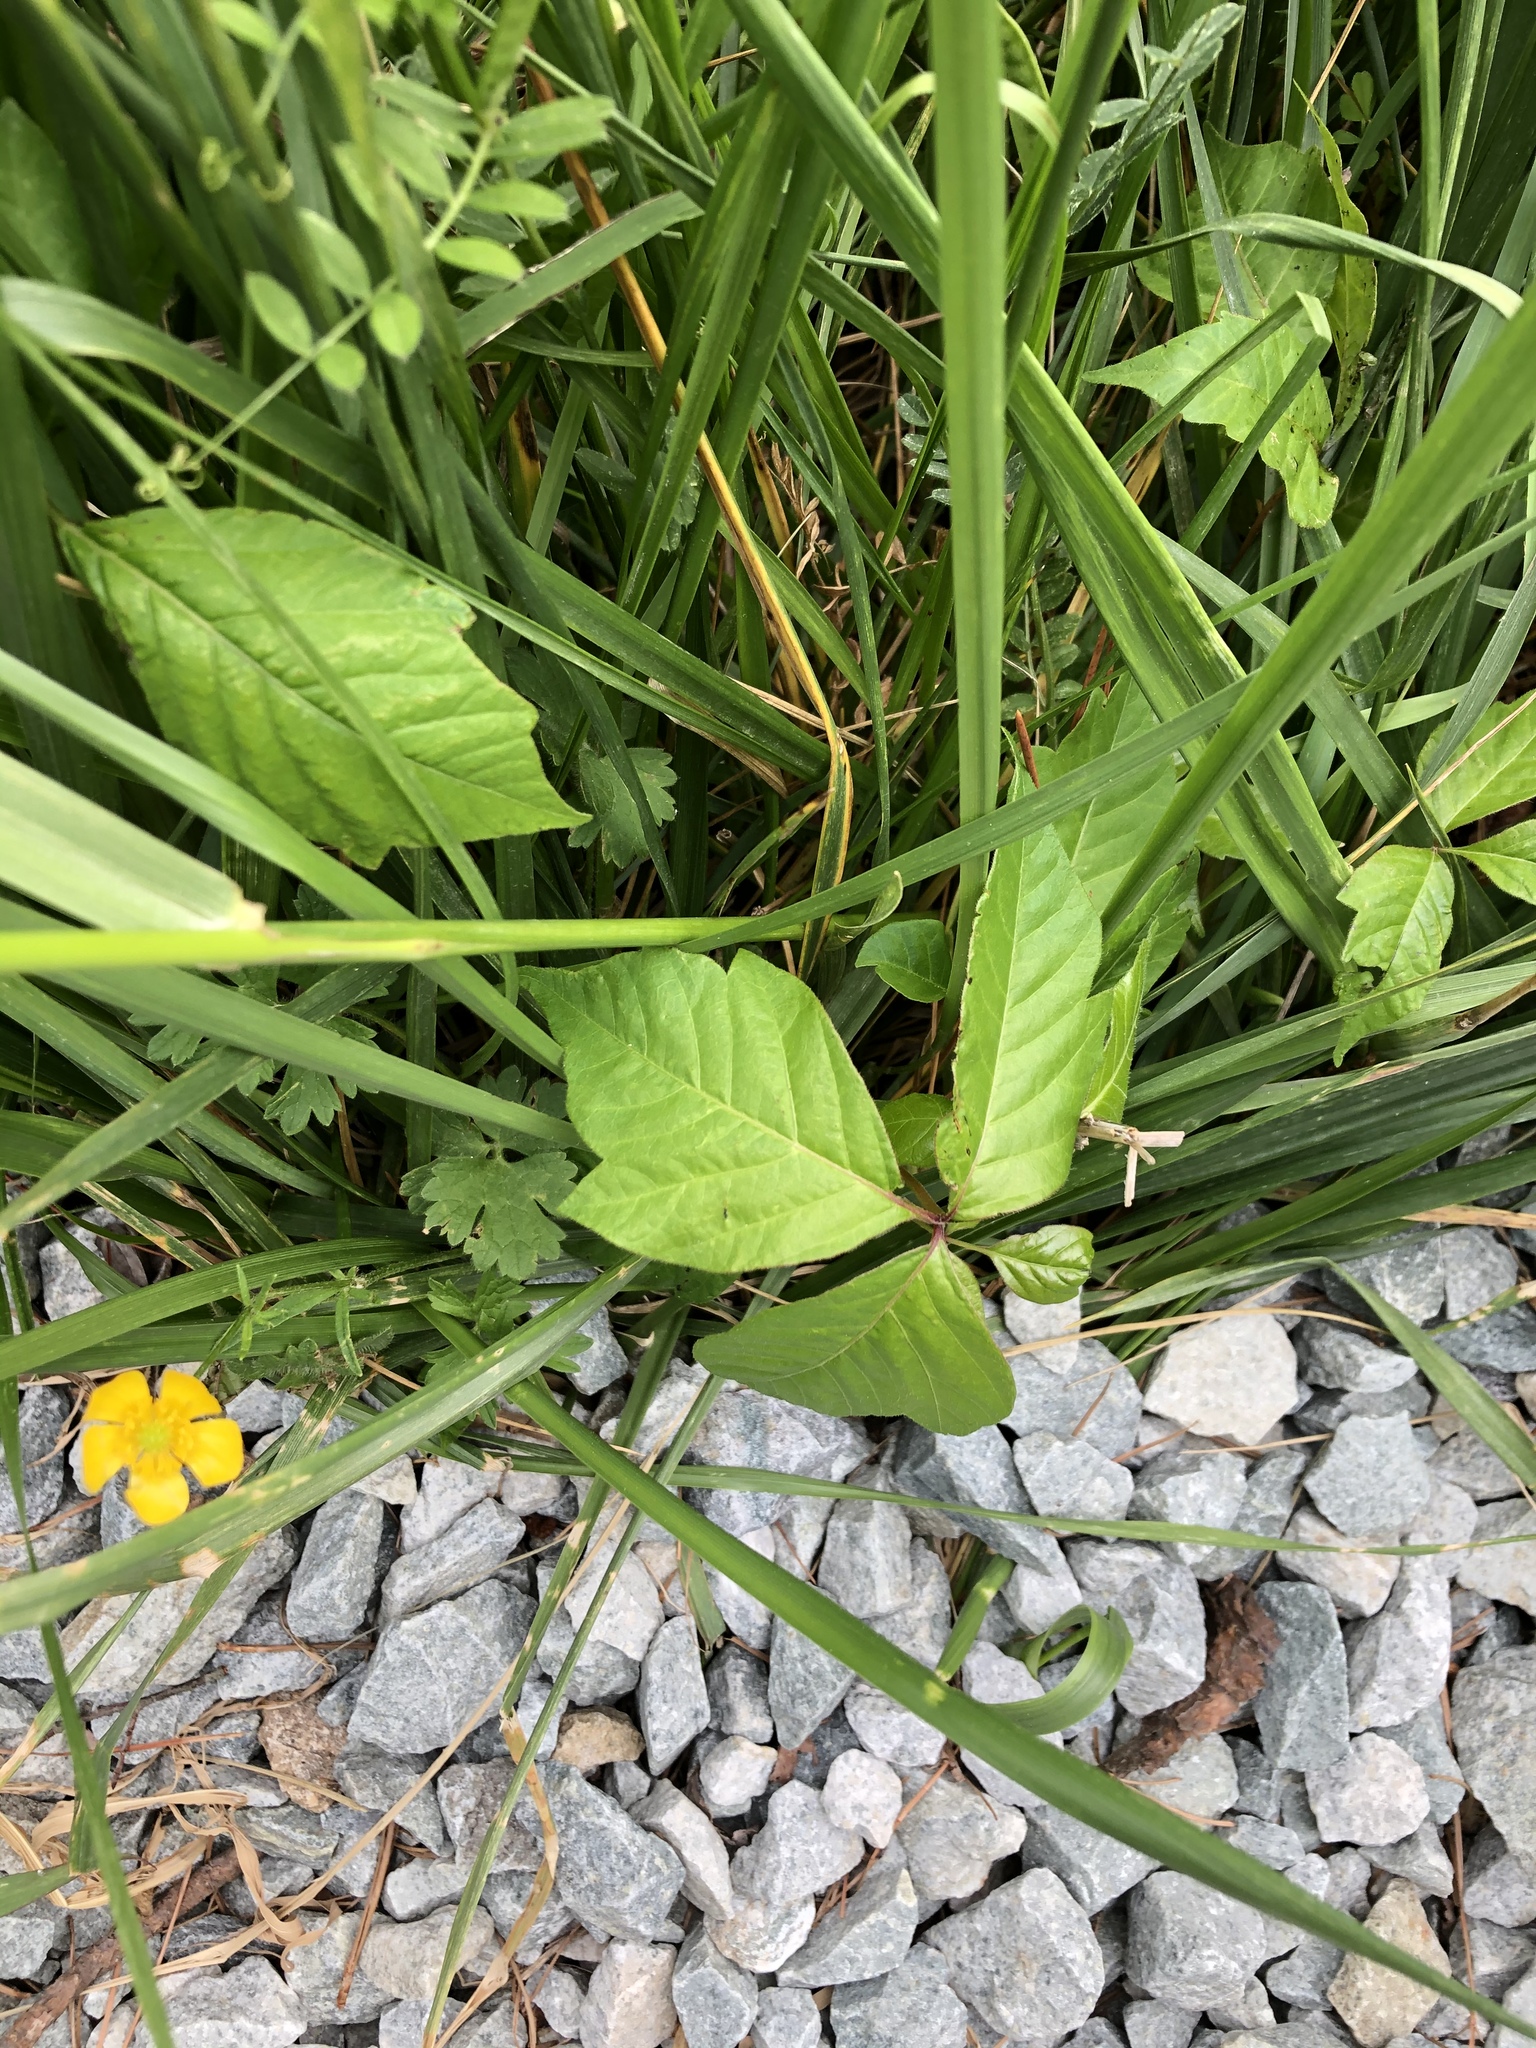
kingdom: Plantae
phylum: Tracheophyta
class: Magnoliopsida
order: Sapindales
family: Anacardiaceae
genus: Toxicodendron
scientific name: Toxicodendron radicans
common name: Poison ivy
